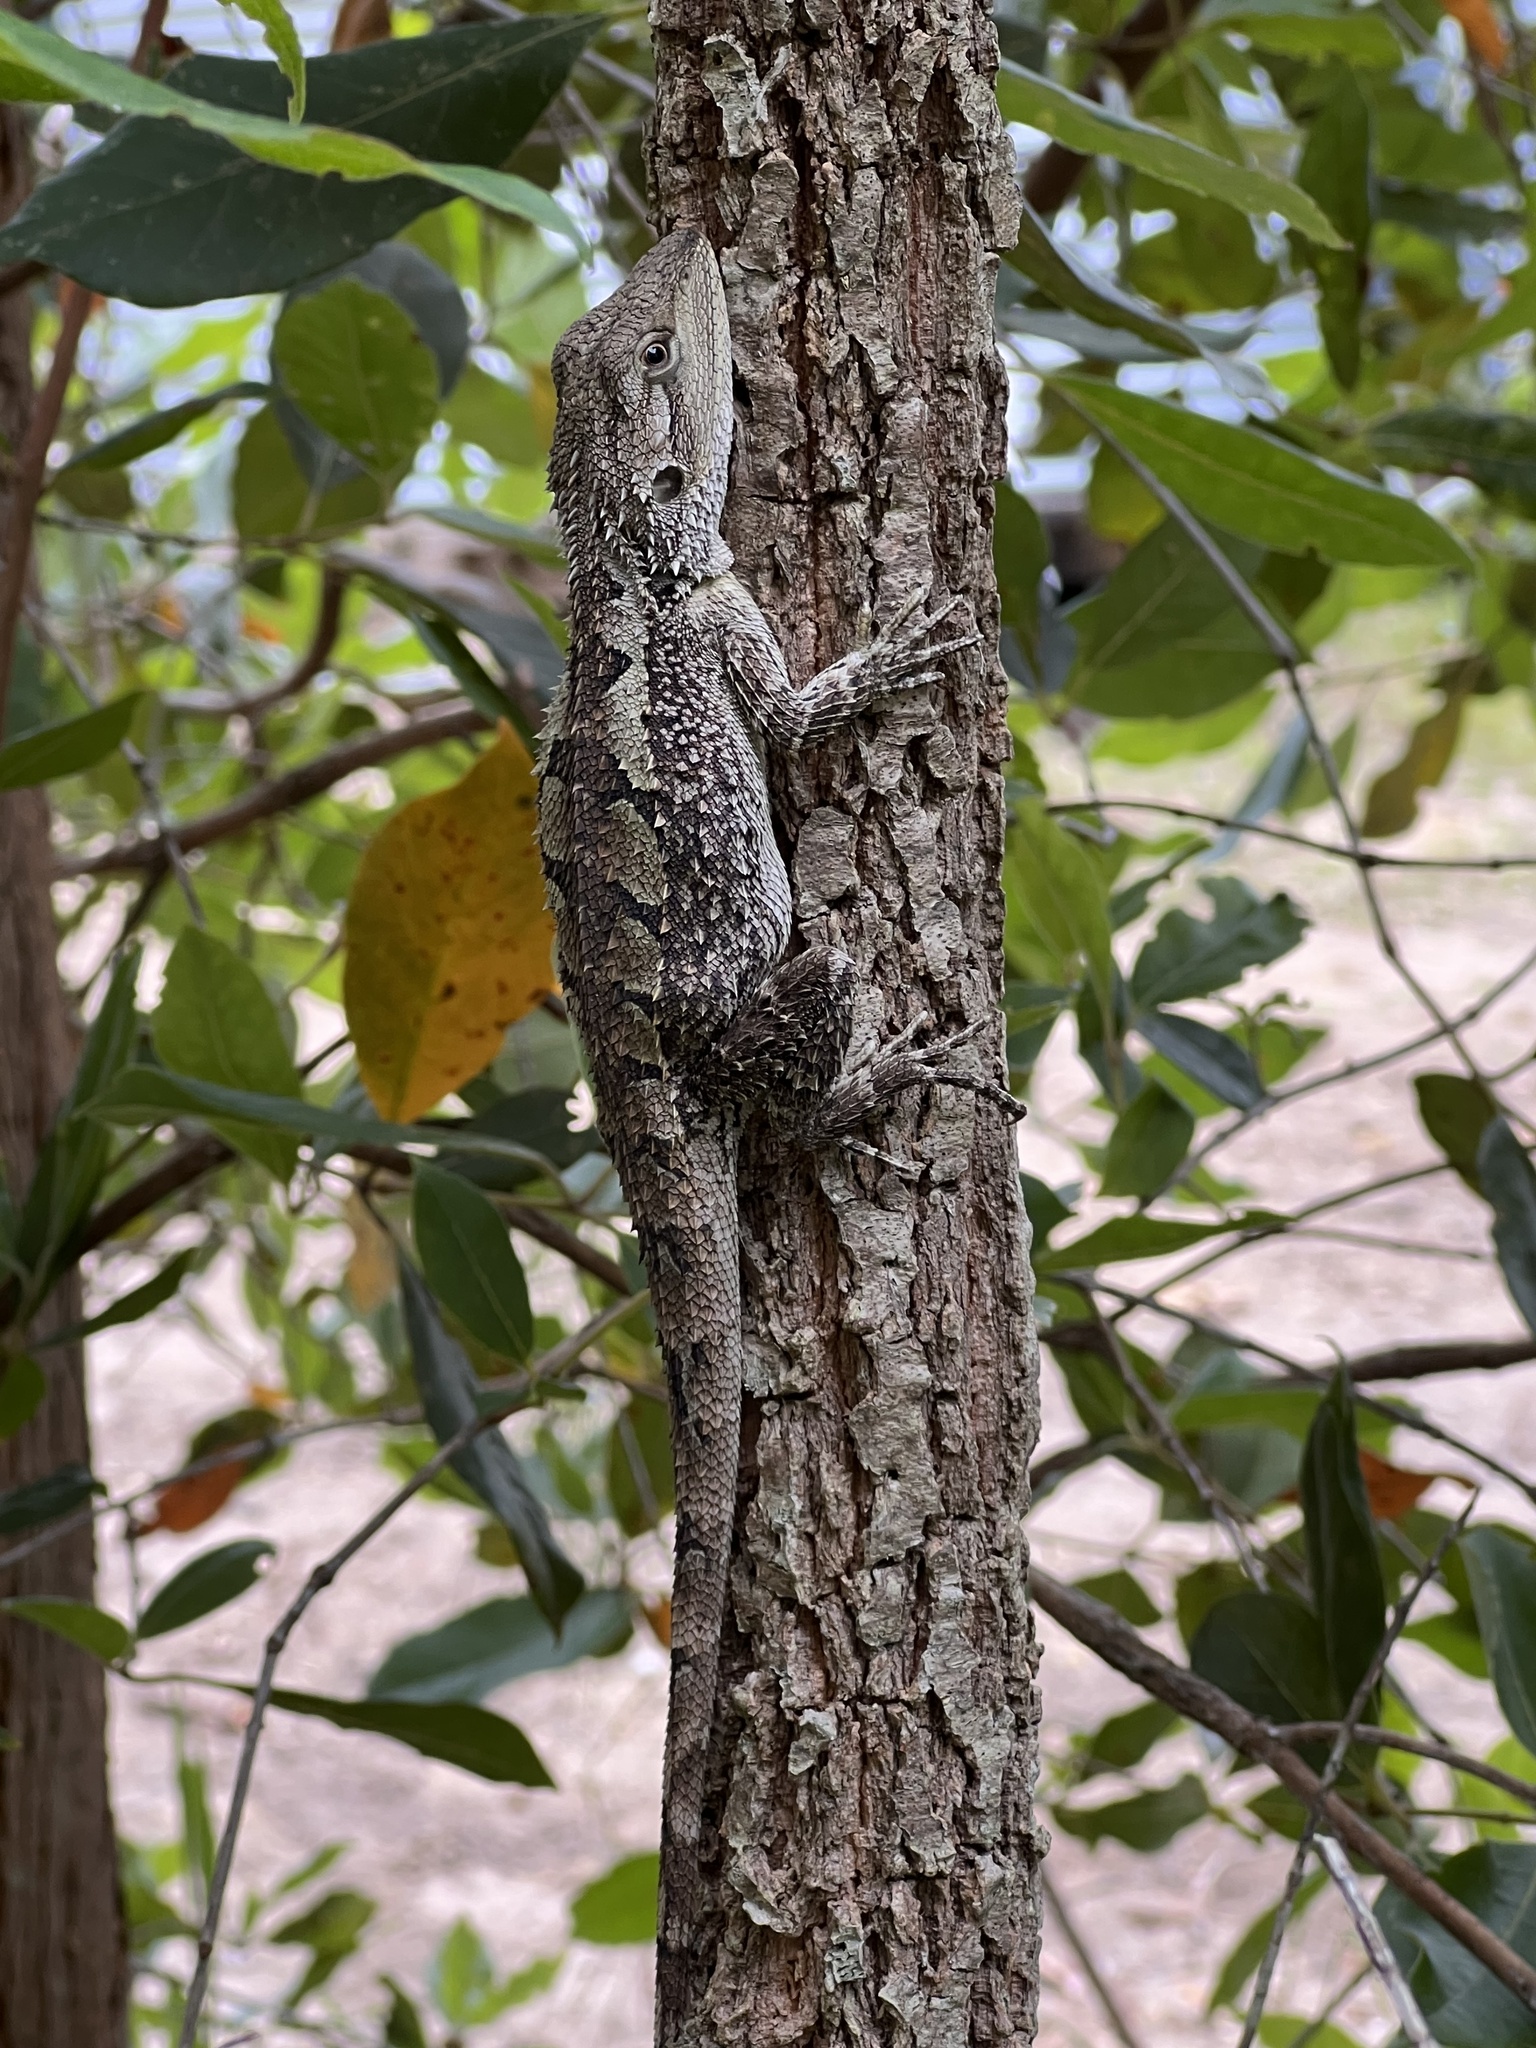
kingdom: Animalia
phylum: Chordata
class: Squamata
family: Agamidae
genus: Amphibolurus
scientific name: Amphibolurus muricatus
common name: Jacky lizard
